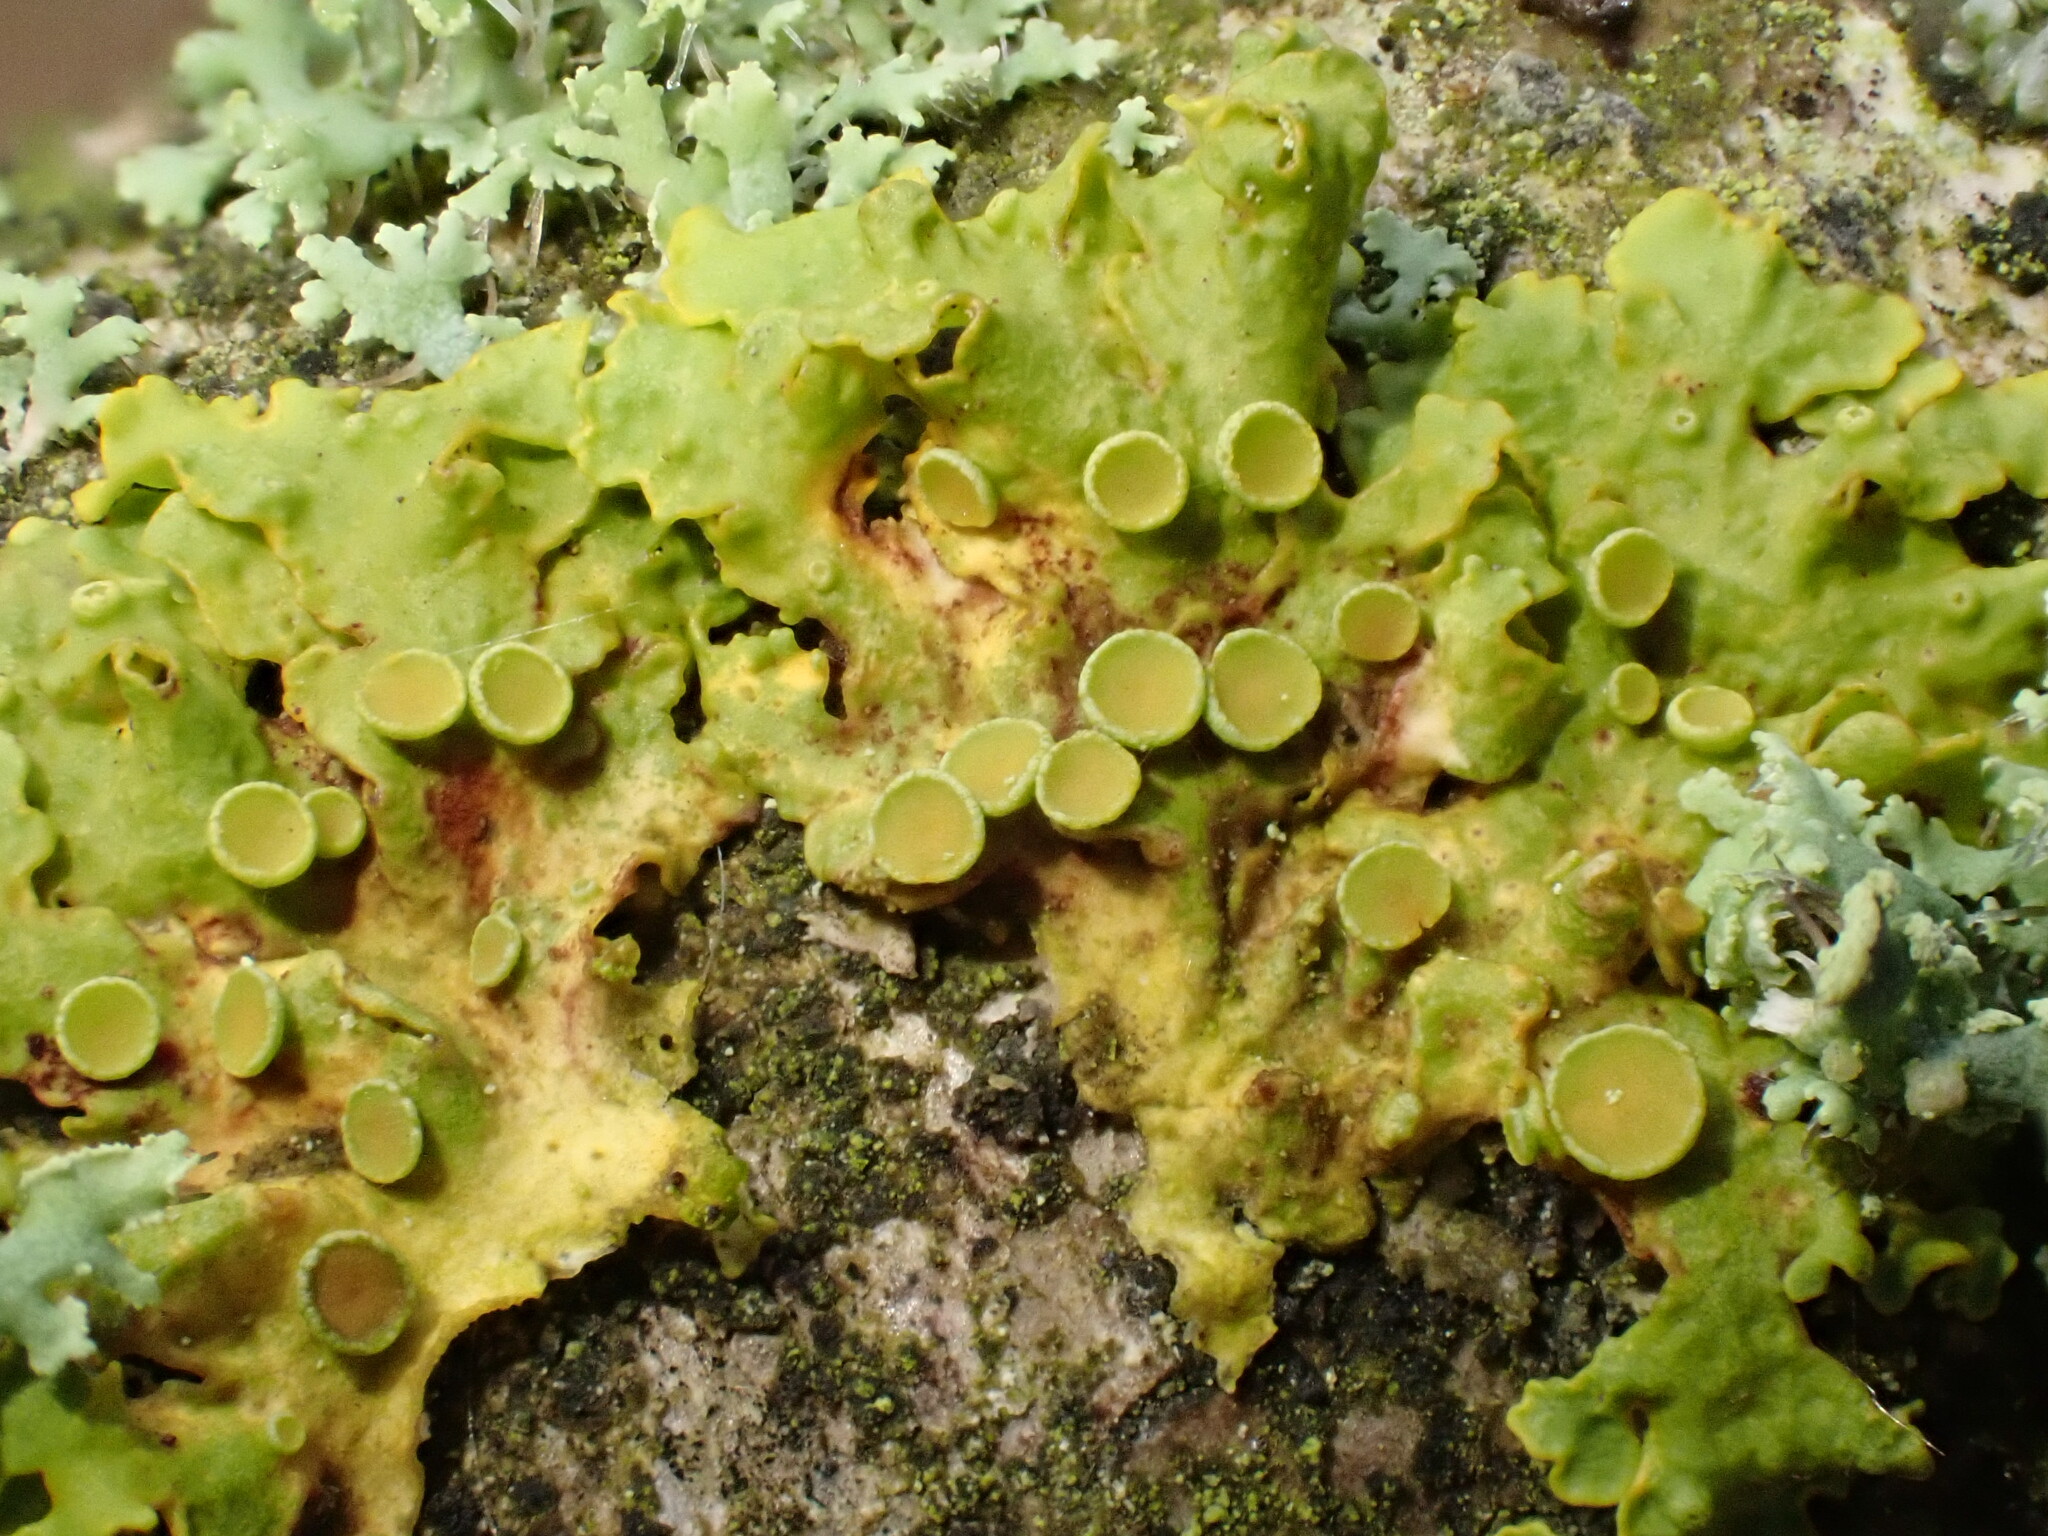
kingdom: Fungi
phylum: Ascomycota
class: Lecanoromycetes
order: Teloschistales
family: Teloschistaceae
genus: Xanthoria
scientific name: Xanthoria parietina
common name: Common orange lichen
